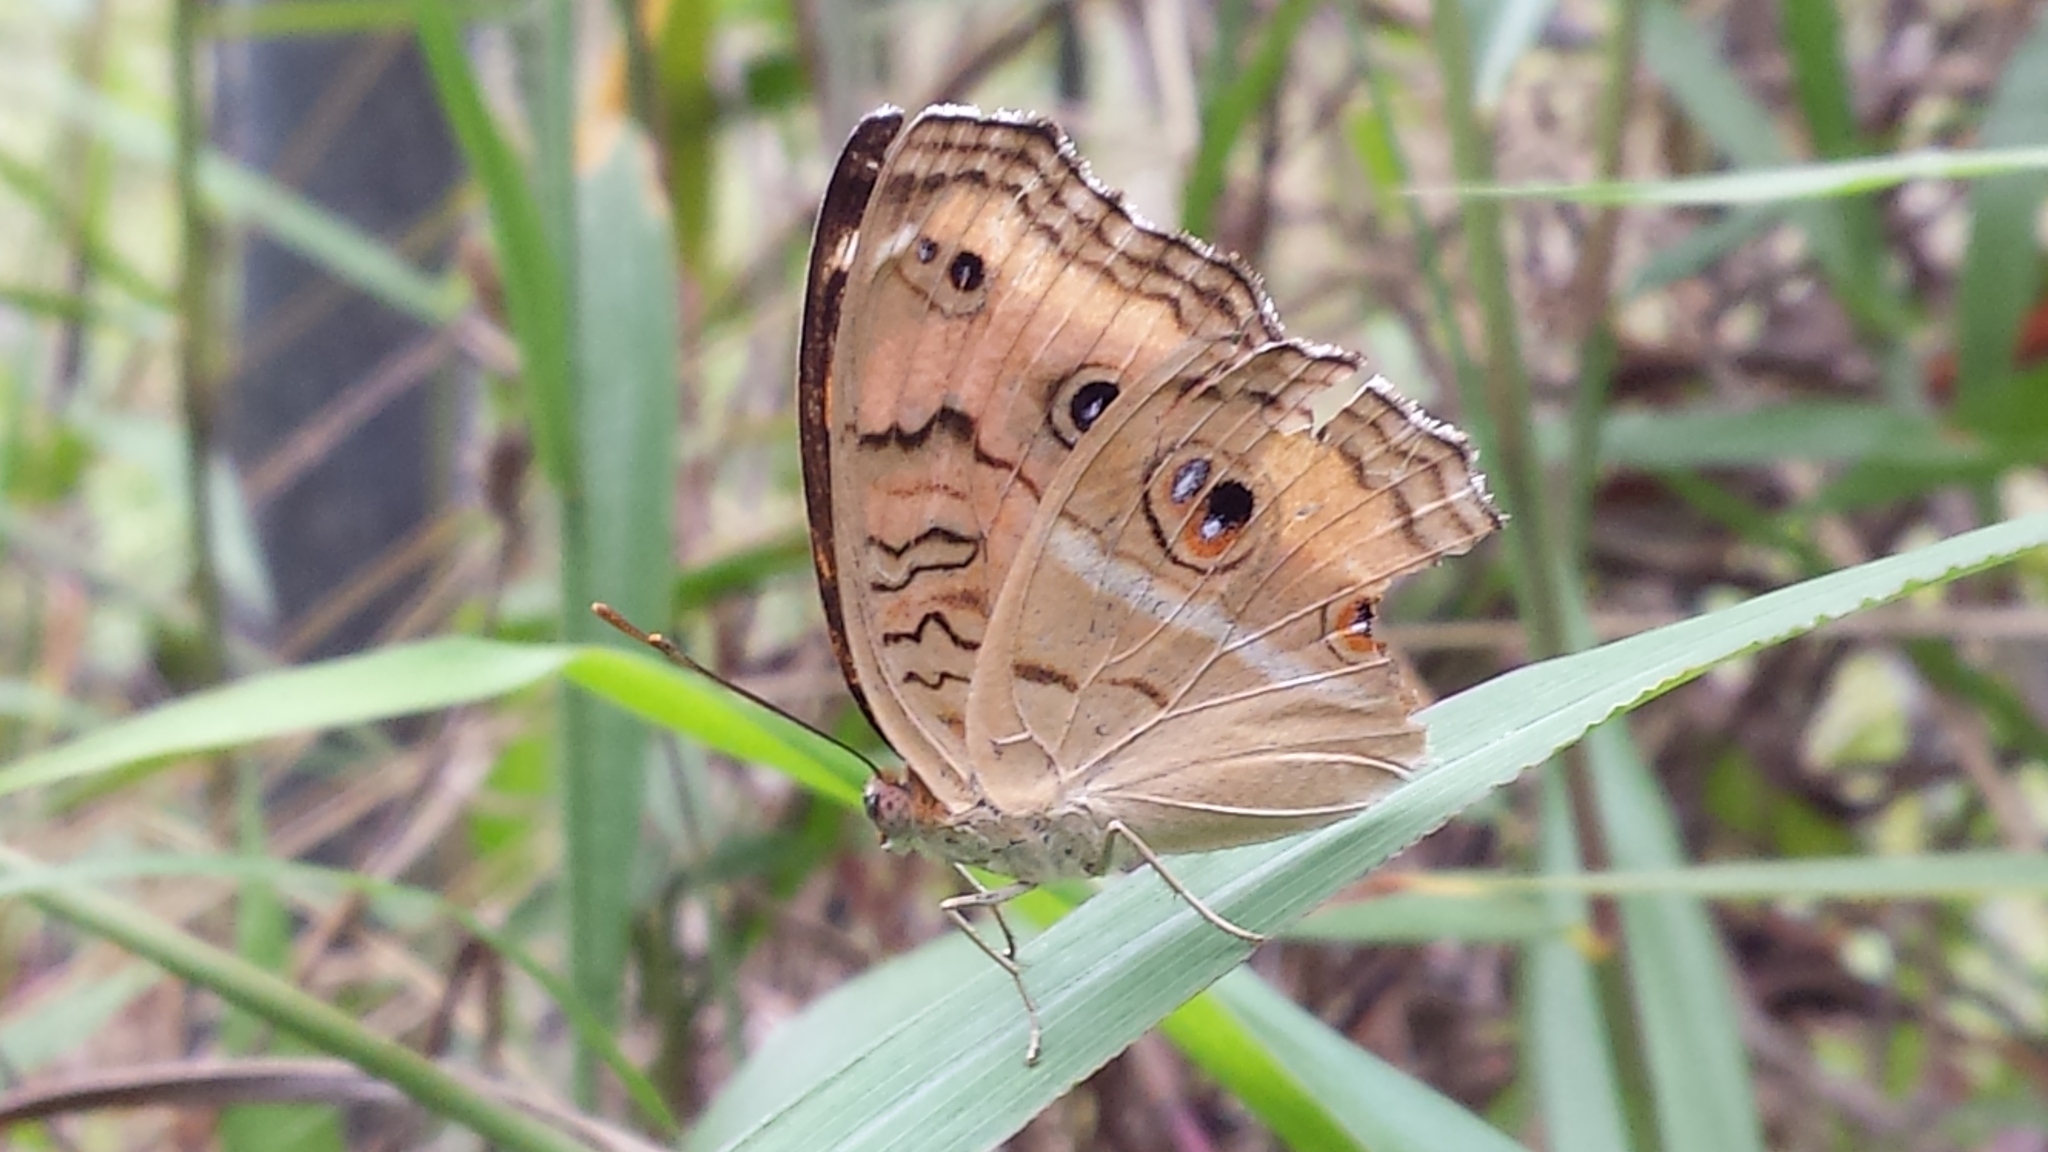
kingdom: Animalia
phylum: Arthropoda
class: Insecta
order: Lepidoptera
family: Nymphalidae
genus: Junonia
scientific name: Junonia almana
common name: Peacock pansy
